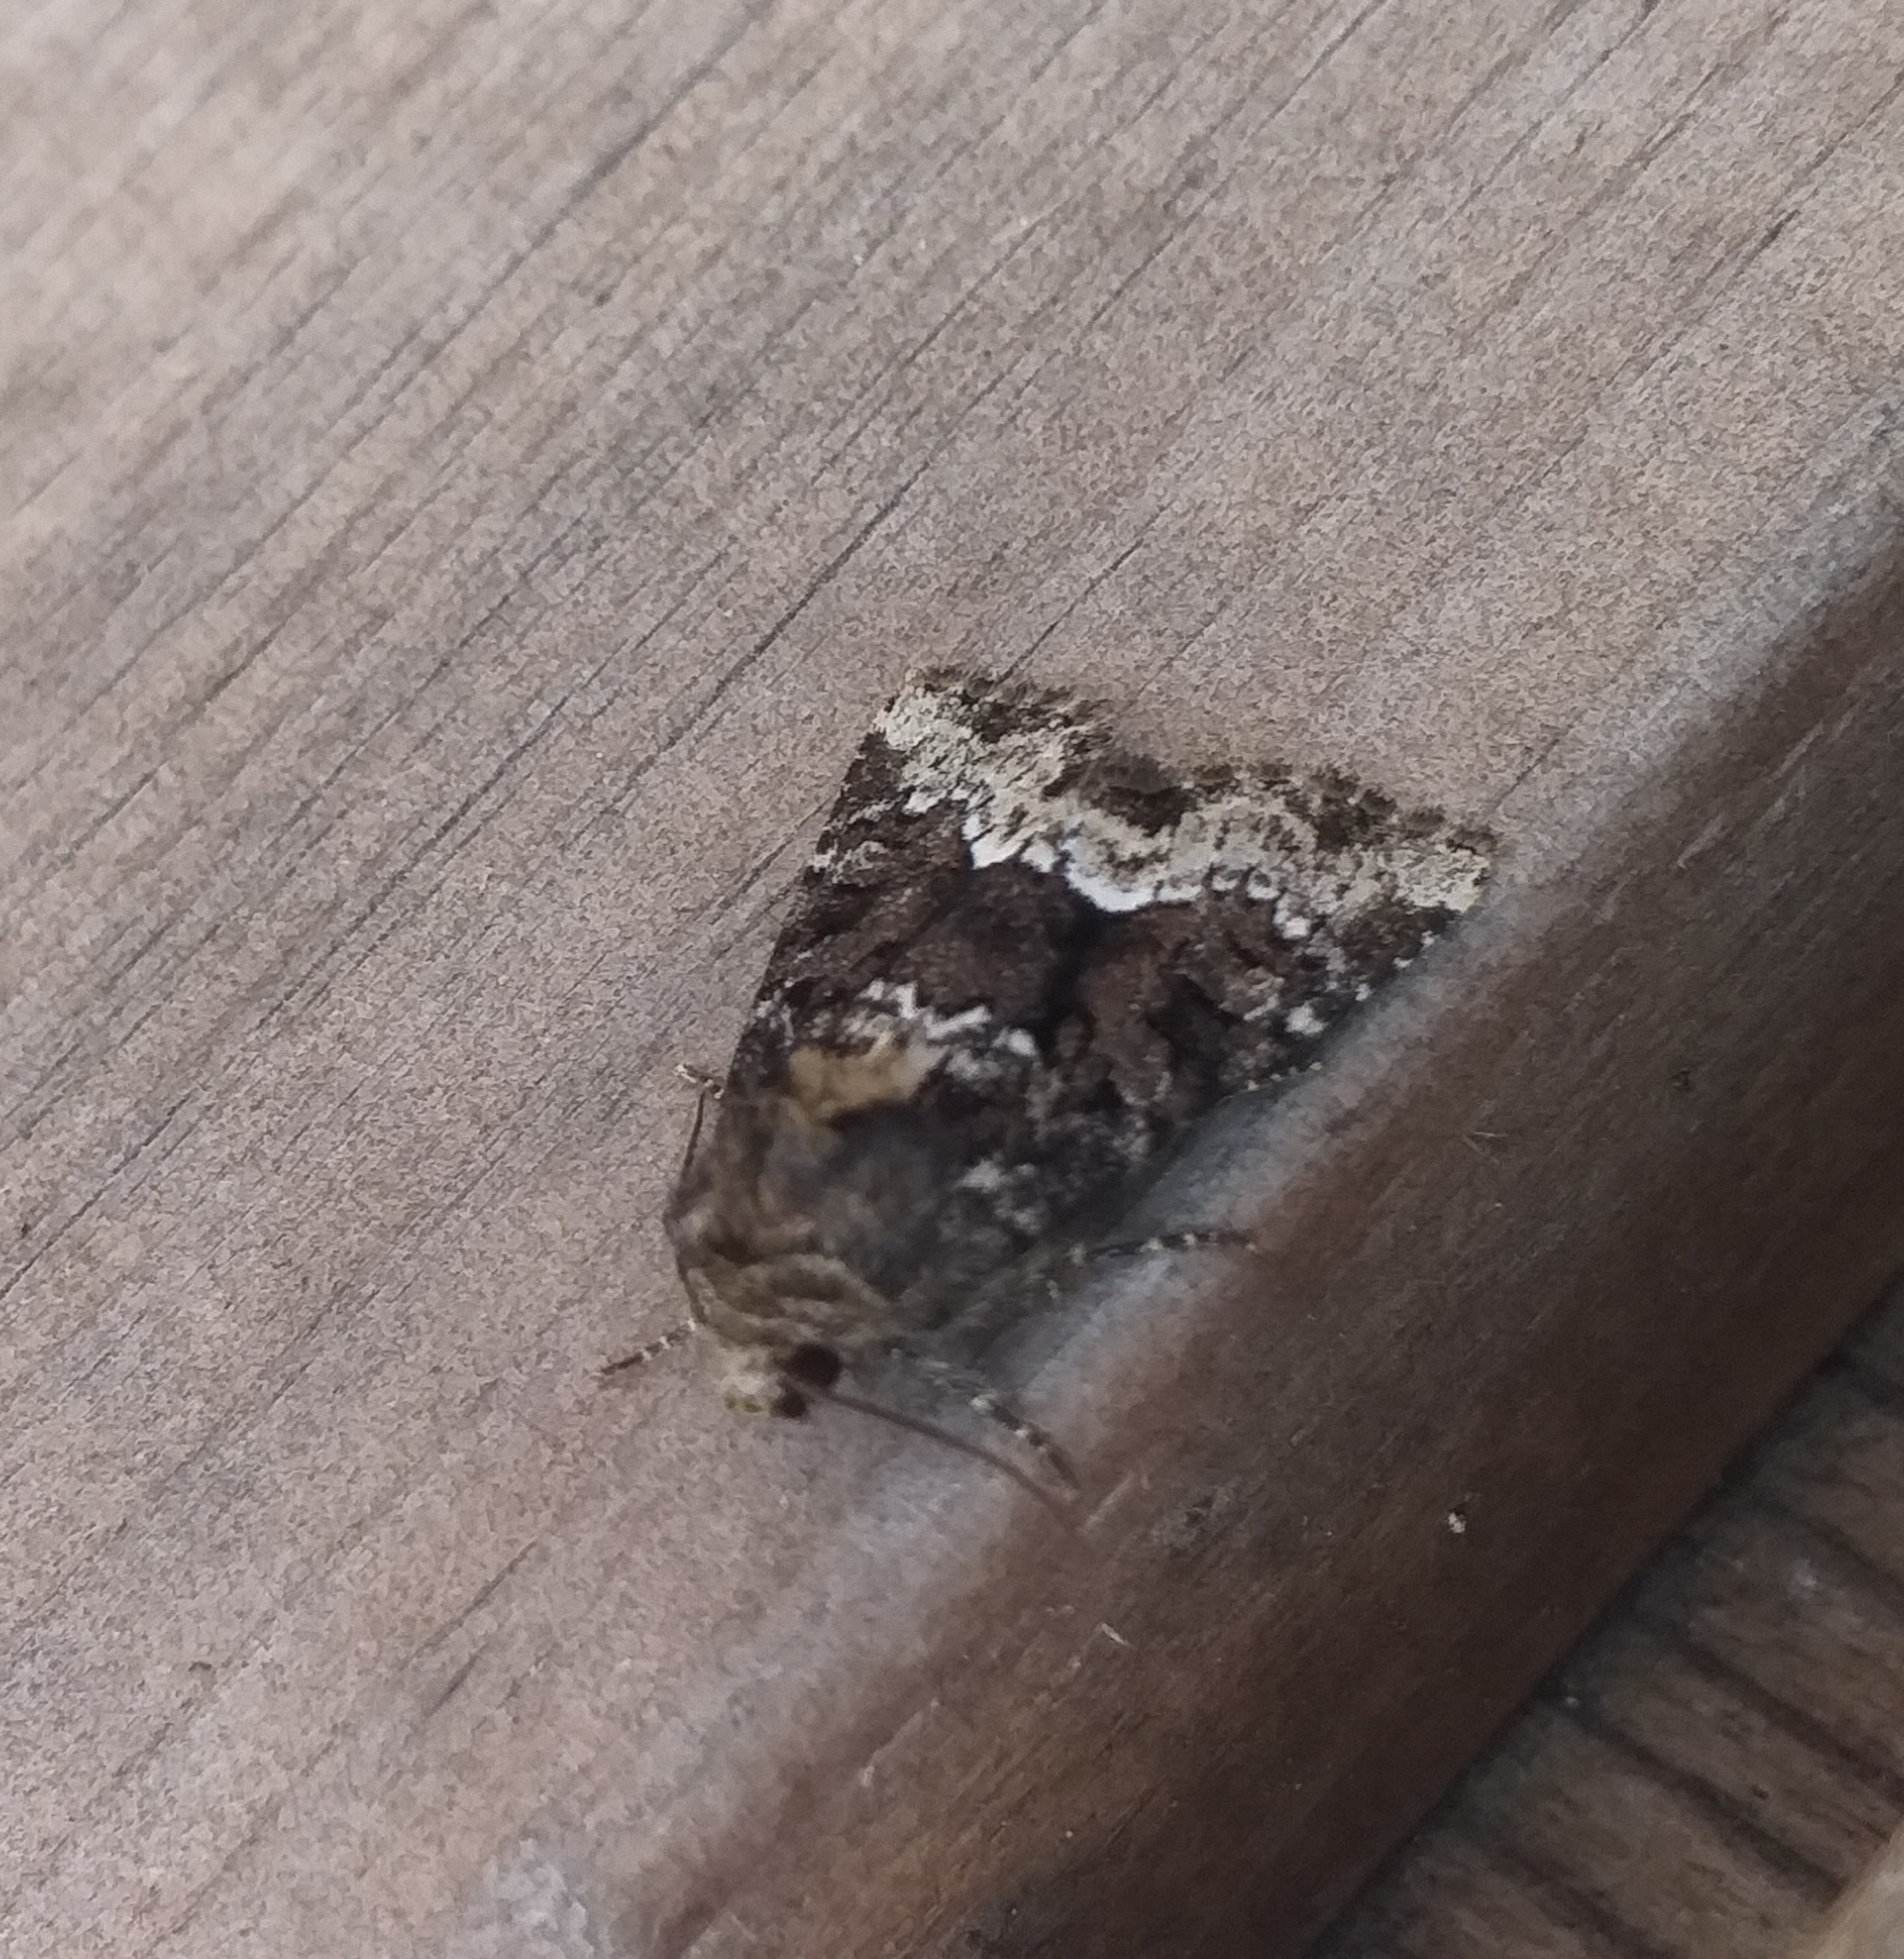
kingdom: Animalia
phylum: Arthropoda
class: Insecta
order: Lepidoptera
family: Noctuidae
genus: Oligia
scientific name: Oligia strigilis
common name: Marbled minor
